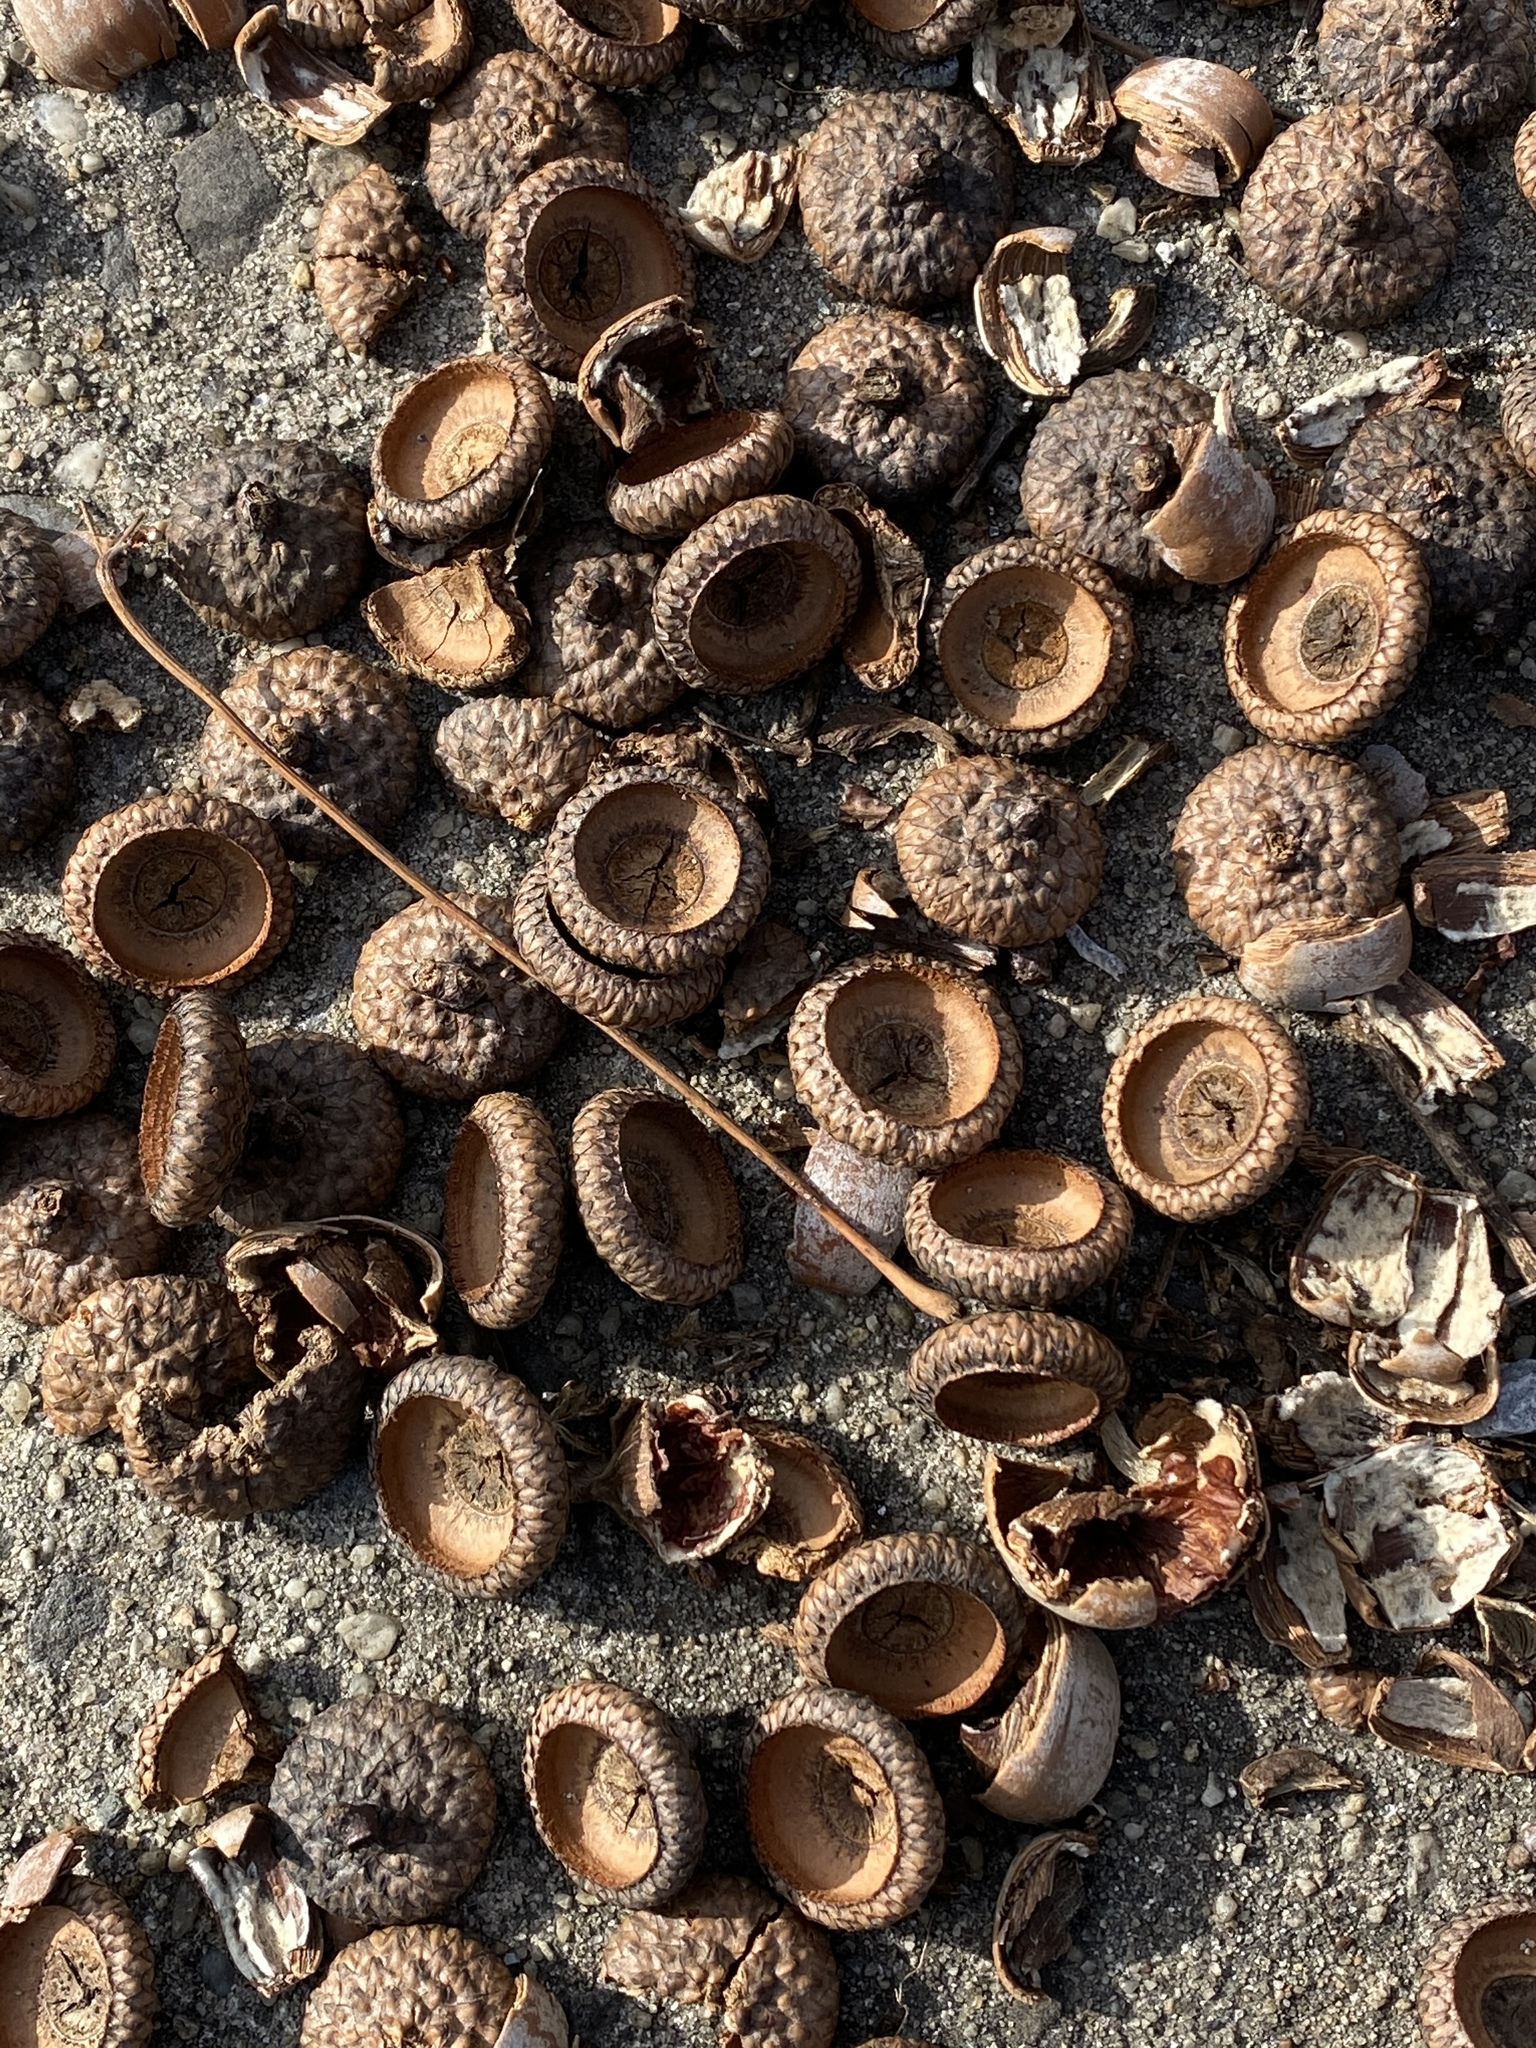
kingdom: Plantae
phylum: Tracheophyta
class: Magnoliopsida
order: Fagales
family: Fagaceae
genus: Quercus
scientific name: Quercus rubra
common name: Red oak
